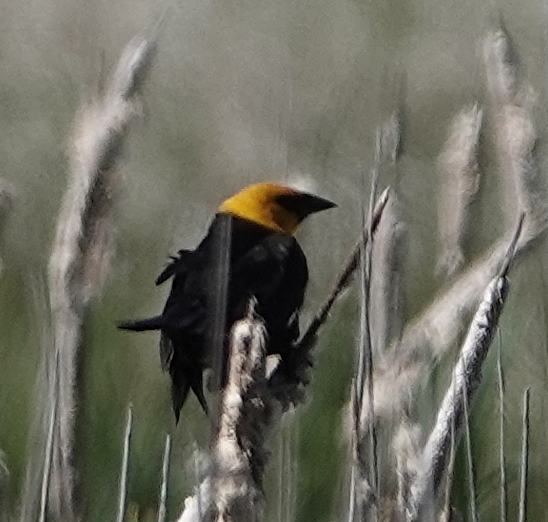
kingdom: Animalia
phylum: Chordata
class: Aves
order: Passeriformes
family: Icteridae
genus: Xanthocephalus
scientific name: Xanthocephalus xanthocephalus
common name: Yellow-headed blackbird
